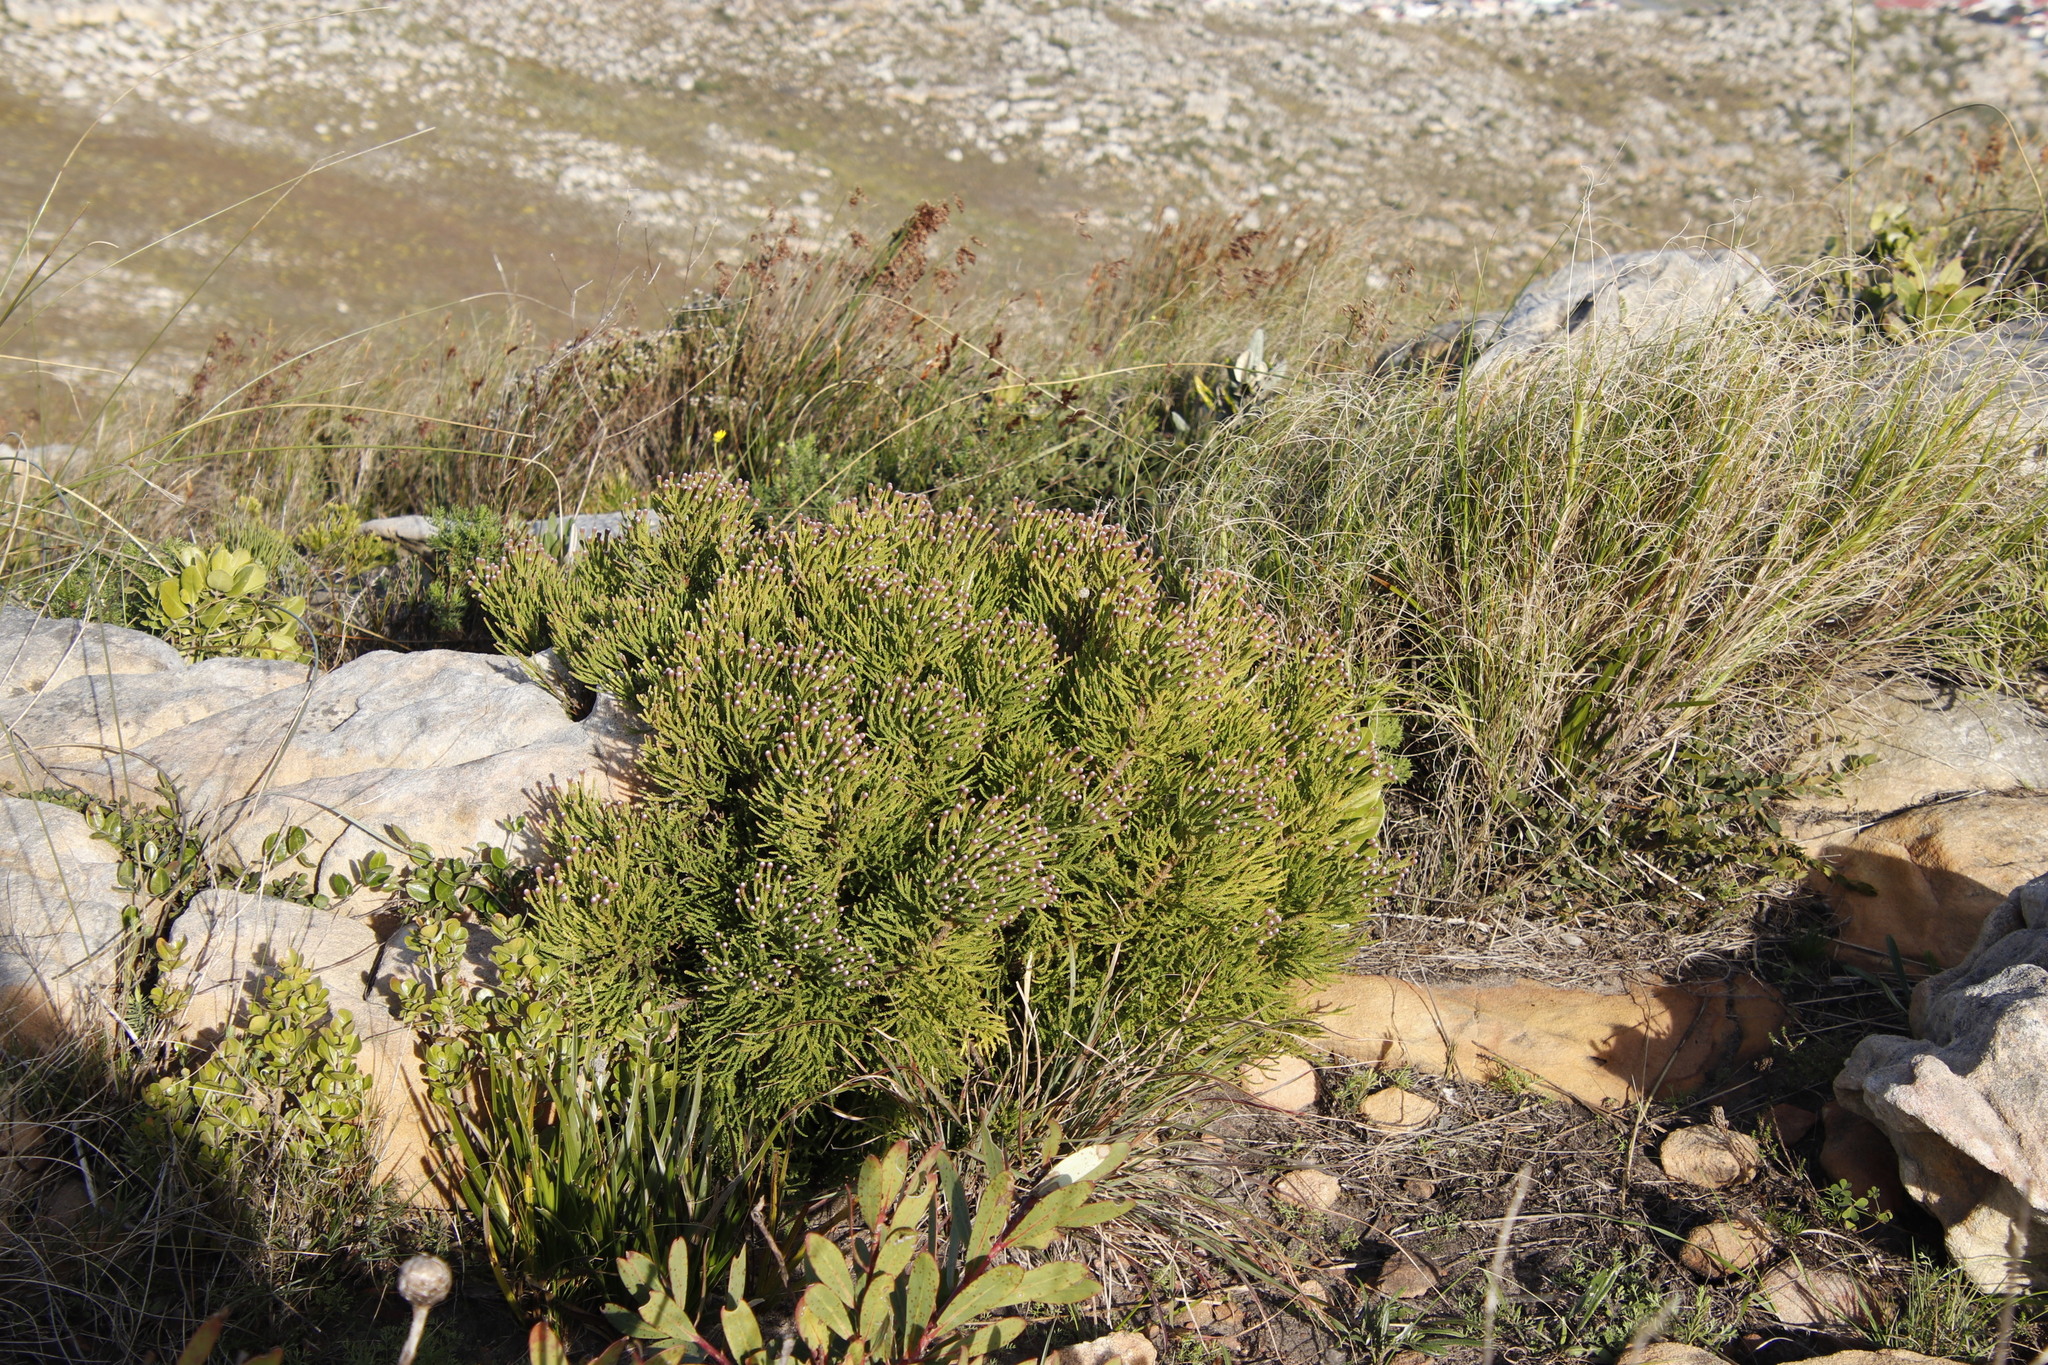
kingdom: Plantae
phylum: Tracheophyta
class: Magnoliopsida
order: Bruniales
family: Bruniaceae
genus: Brunia
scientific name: Brunia noduliflora
